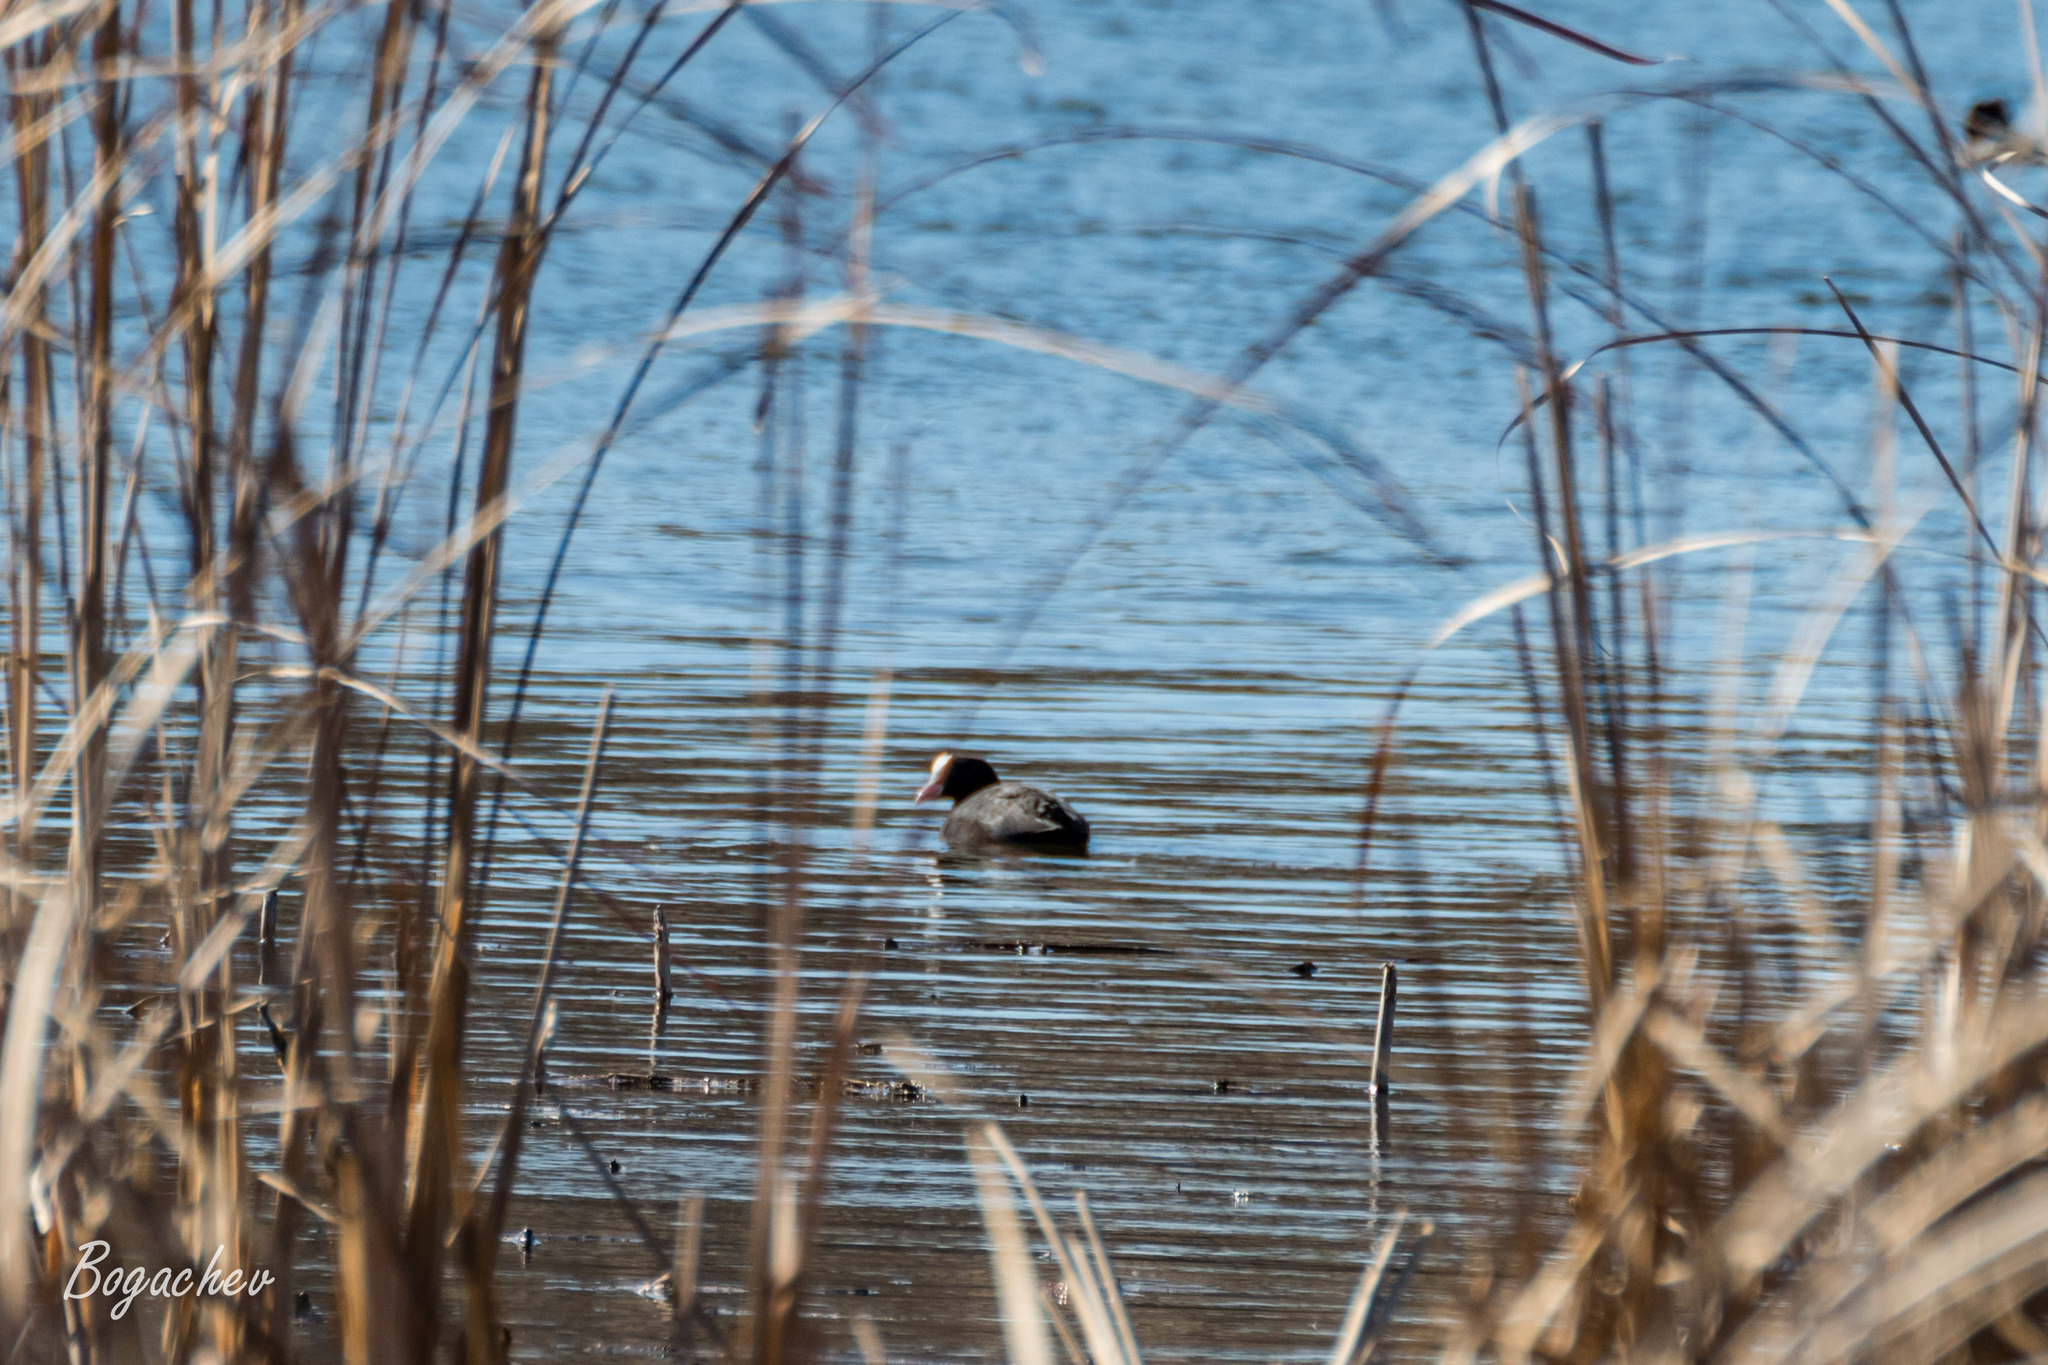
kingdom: Animalia
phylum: Chordata
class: Aves
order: Gruiformes
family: Rallidae
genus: Fulica
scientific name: Fulica atra
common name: Eurasian coot
